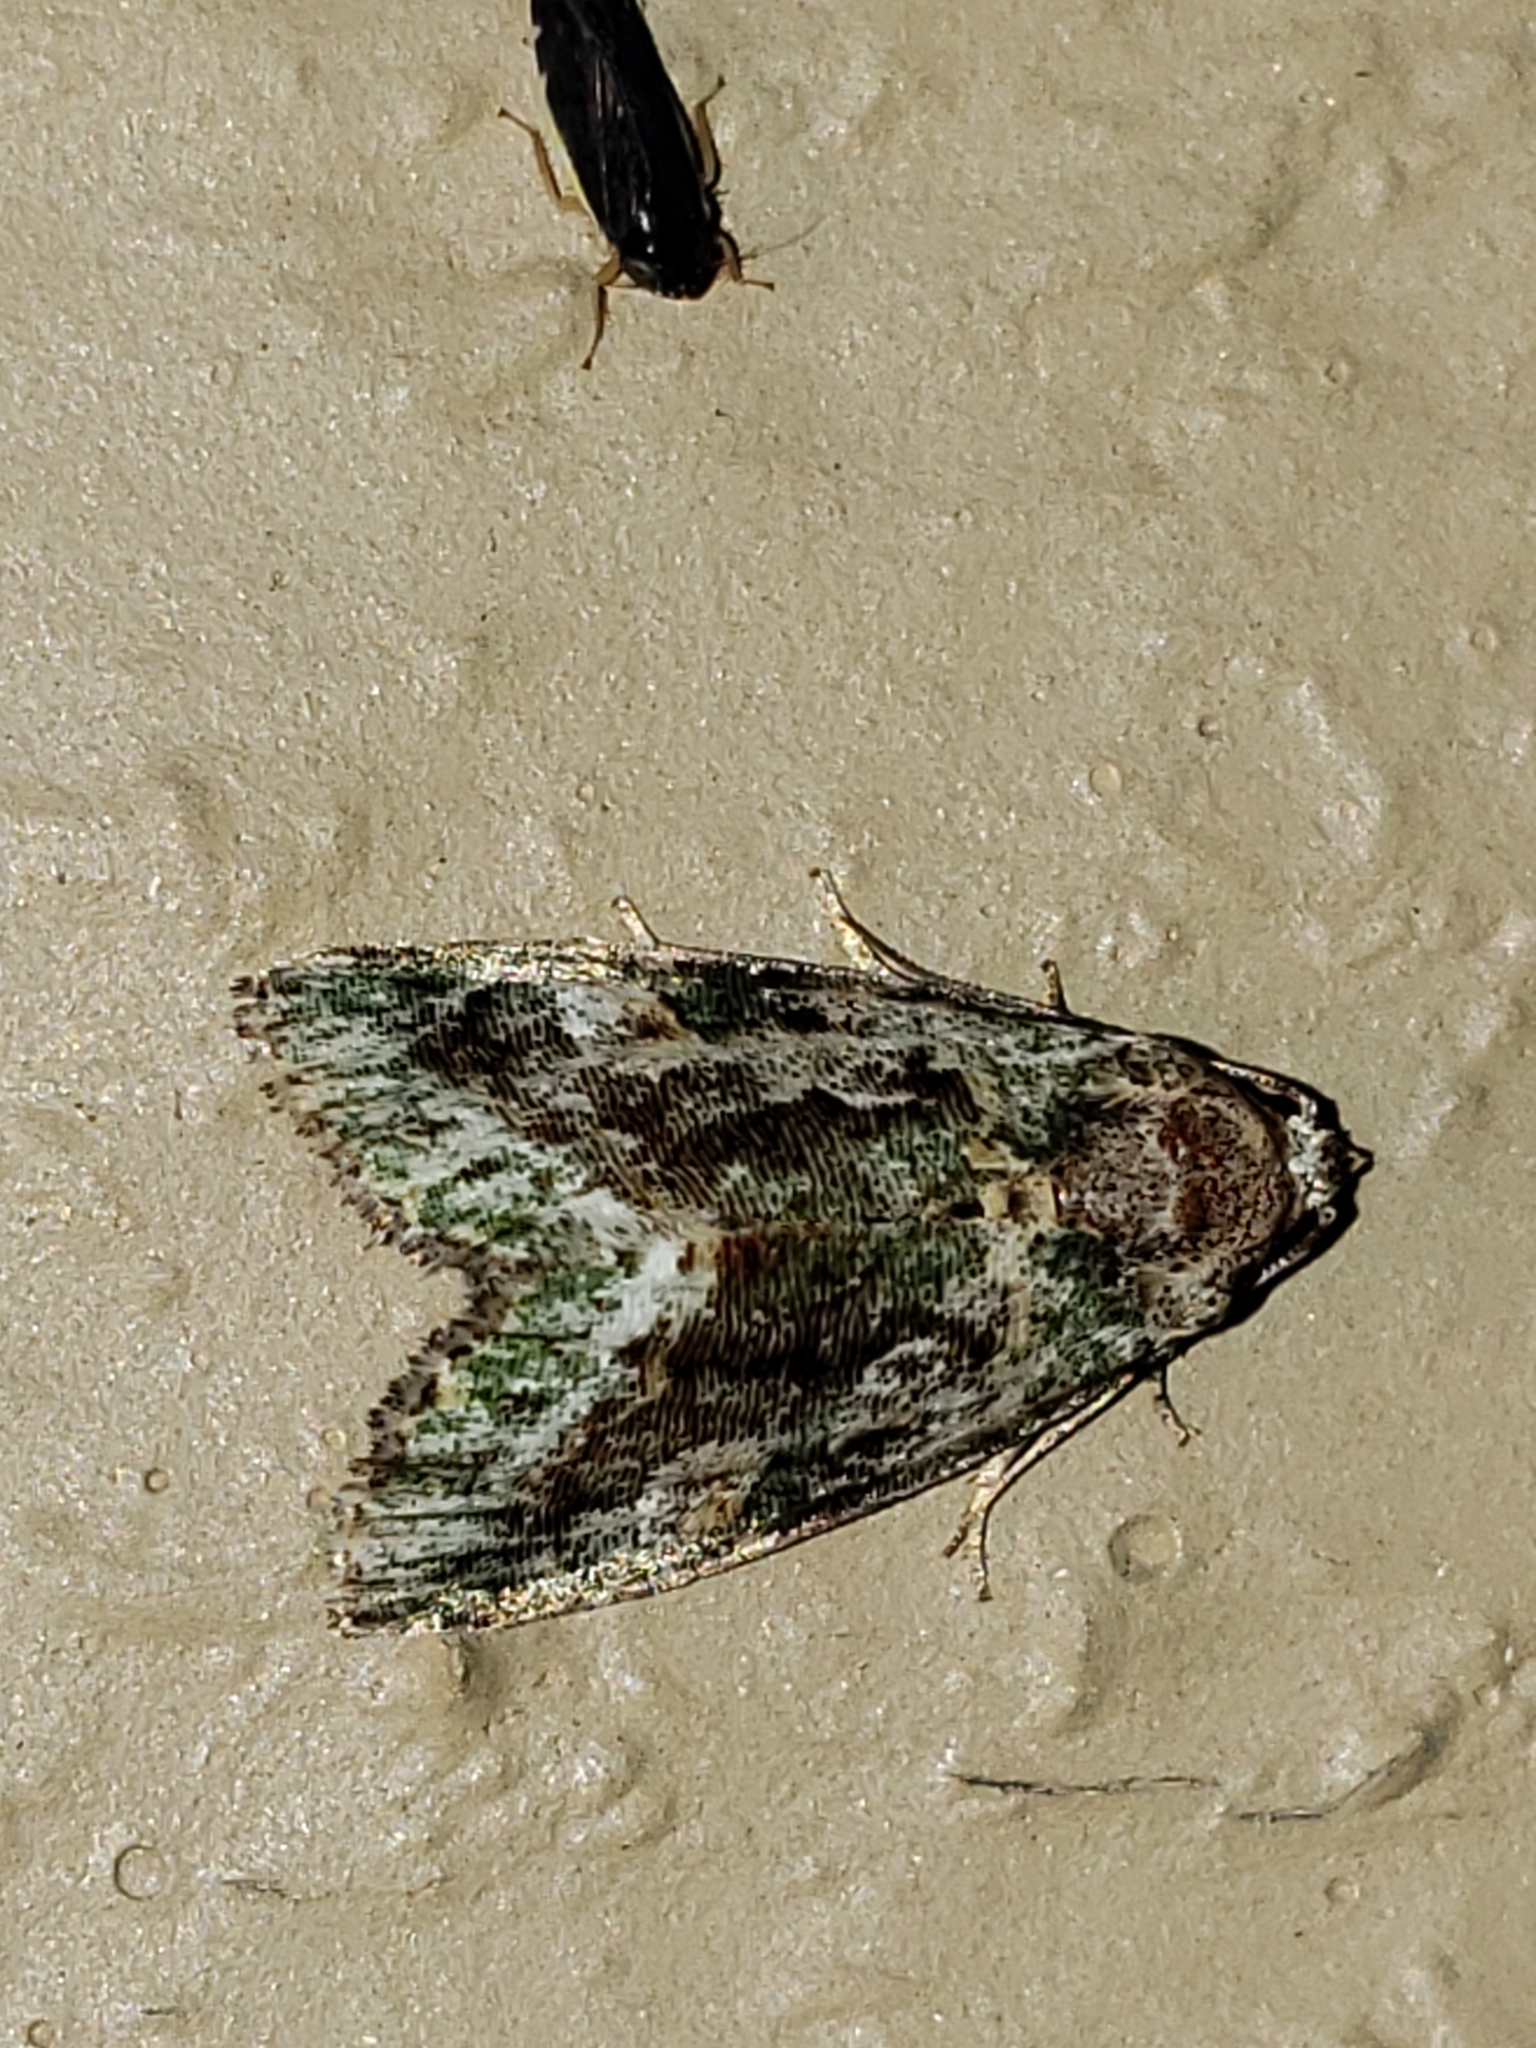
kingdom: Animalia
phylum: Arthropoda
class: Insecta
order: Lepidoptera
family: Noctuidae
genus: Lithacodia
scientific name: Lithacodia musta
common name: Small mossy glyph
